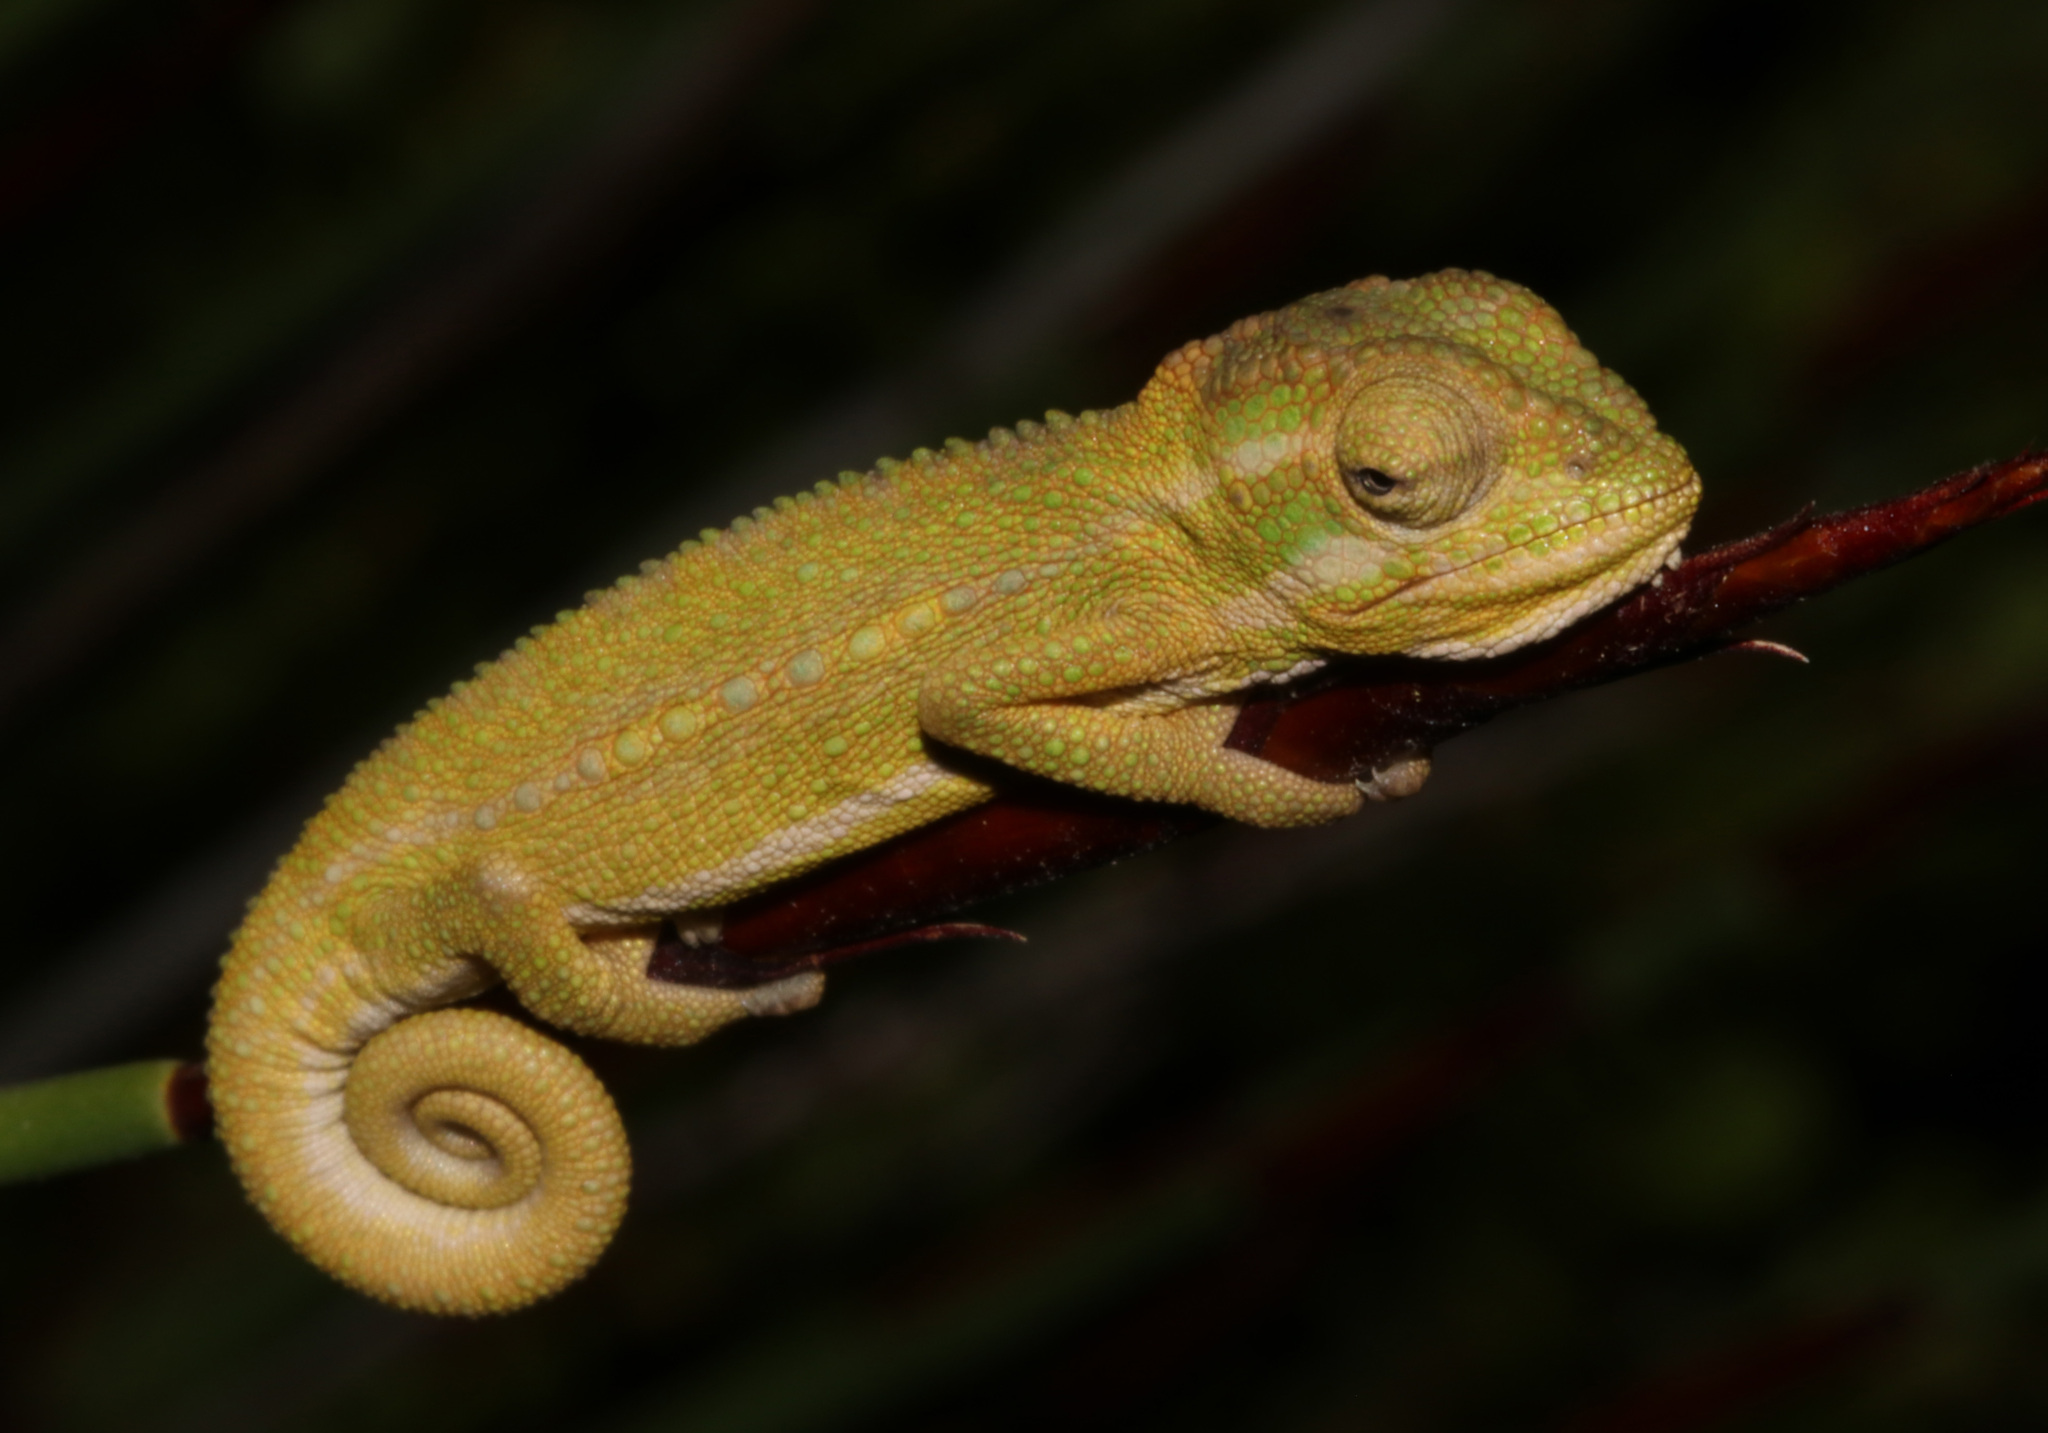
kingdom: Animalia
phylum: Chordata
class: Squamata
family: Chamaeleonidae
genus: Bradypodion
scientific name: Bradypodion pumilum
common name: Cape dwarf chameleon
